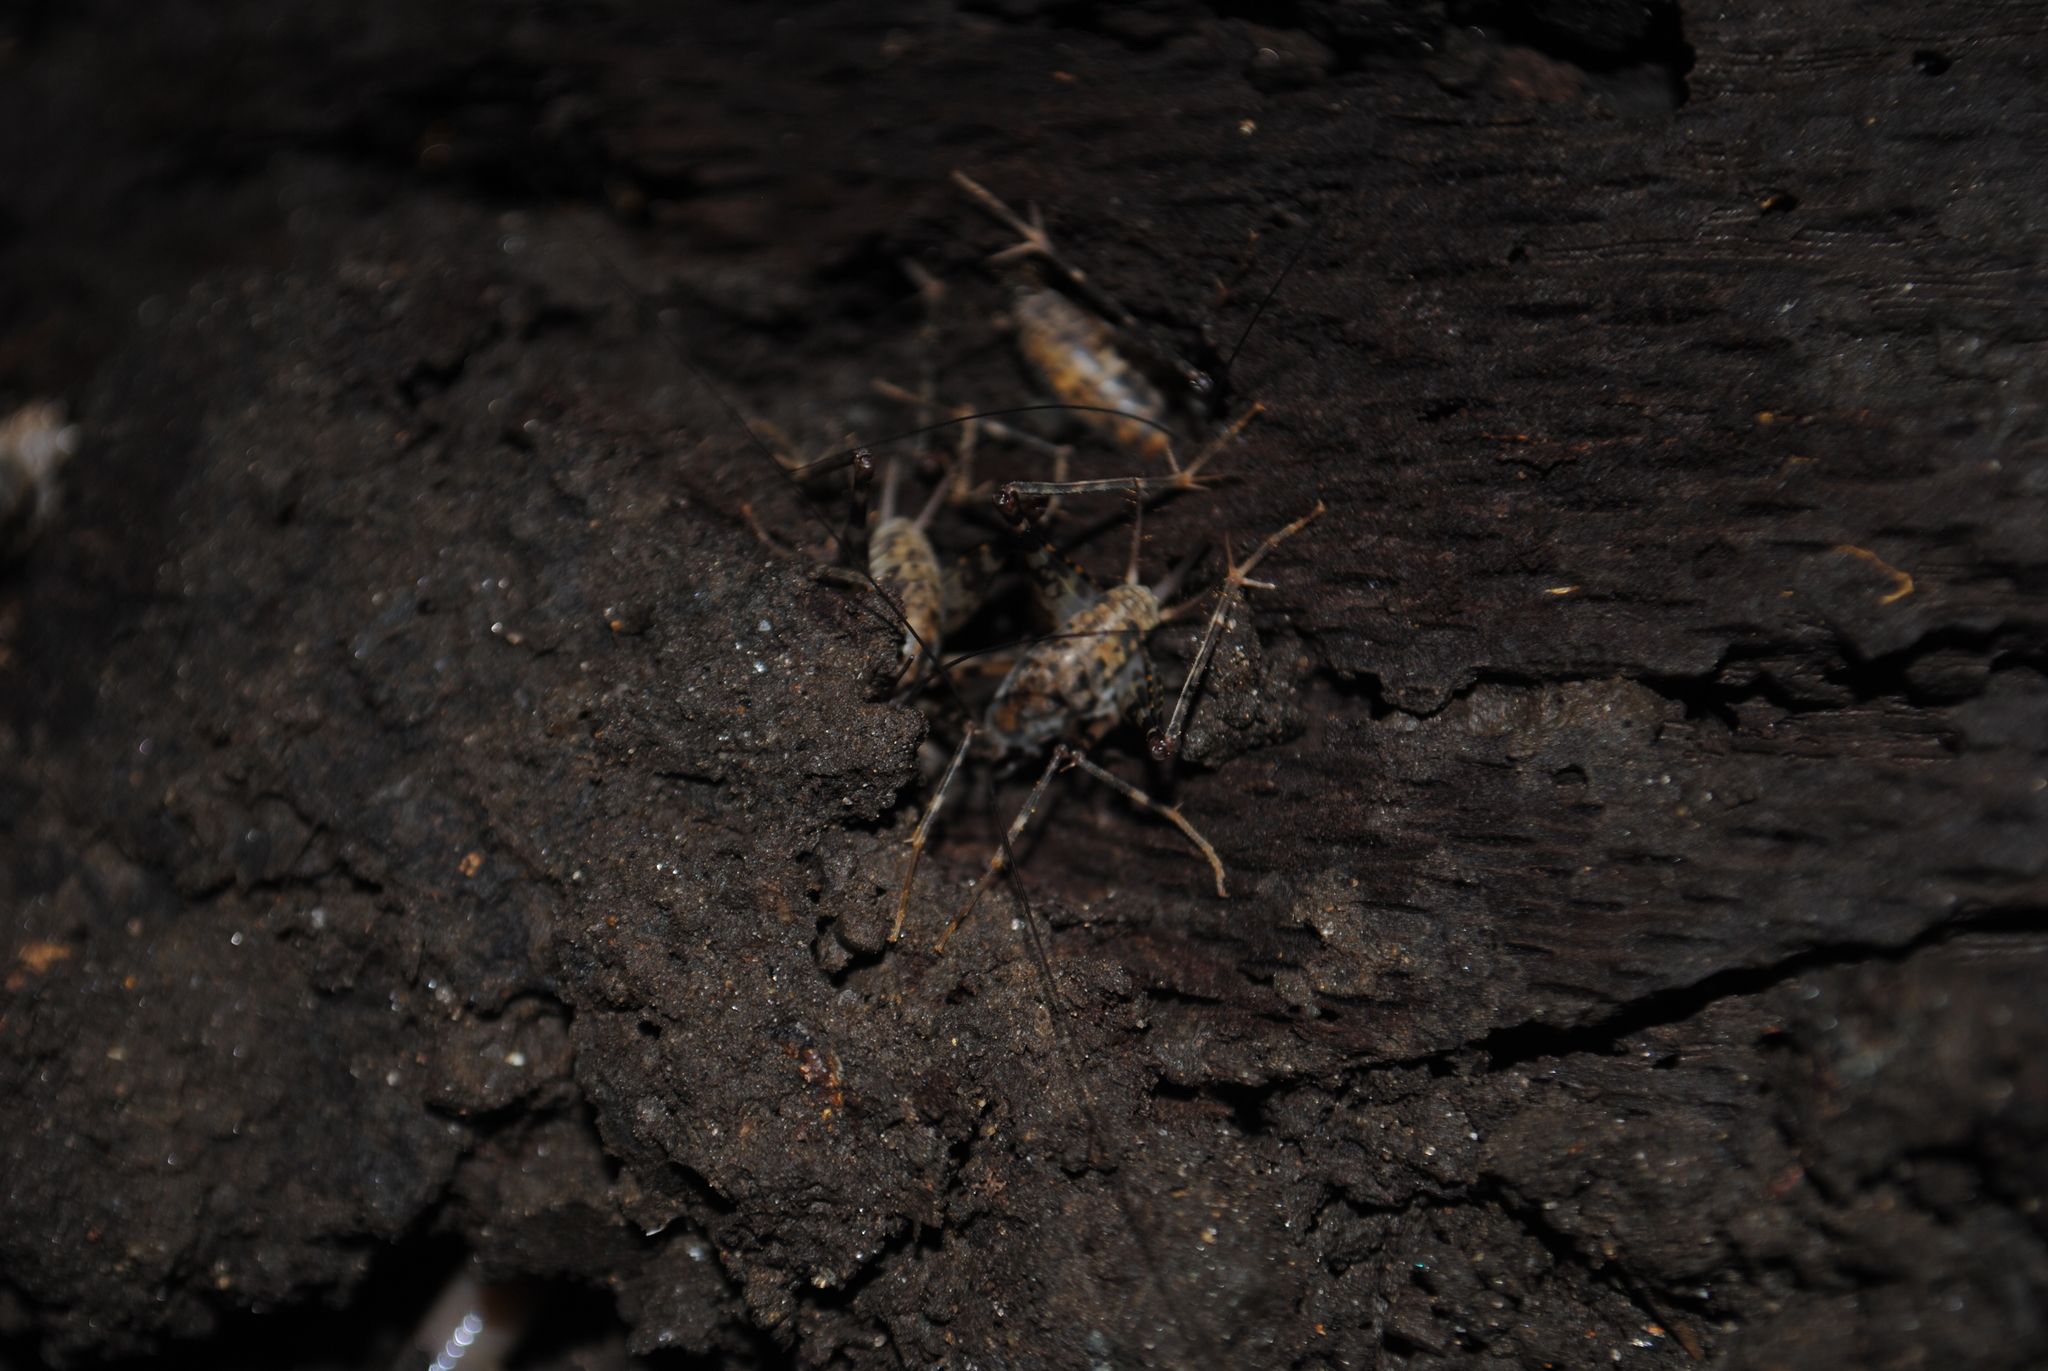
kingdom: Animalia
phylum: Arthropoda
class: Insecta
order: Orthoptera
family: Rhaphidophoridae
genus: Tachycines
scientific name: Tachycines asynamorus
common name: Greenhouse camel cricket
